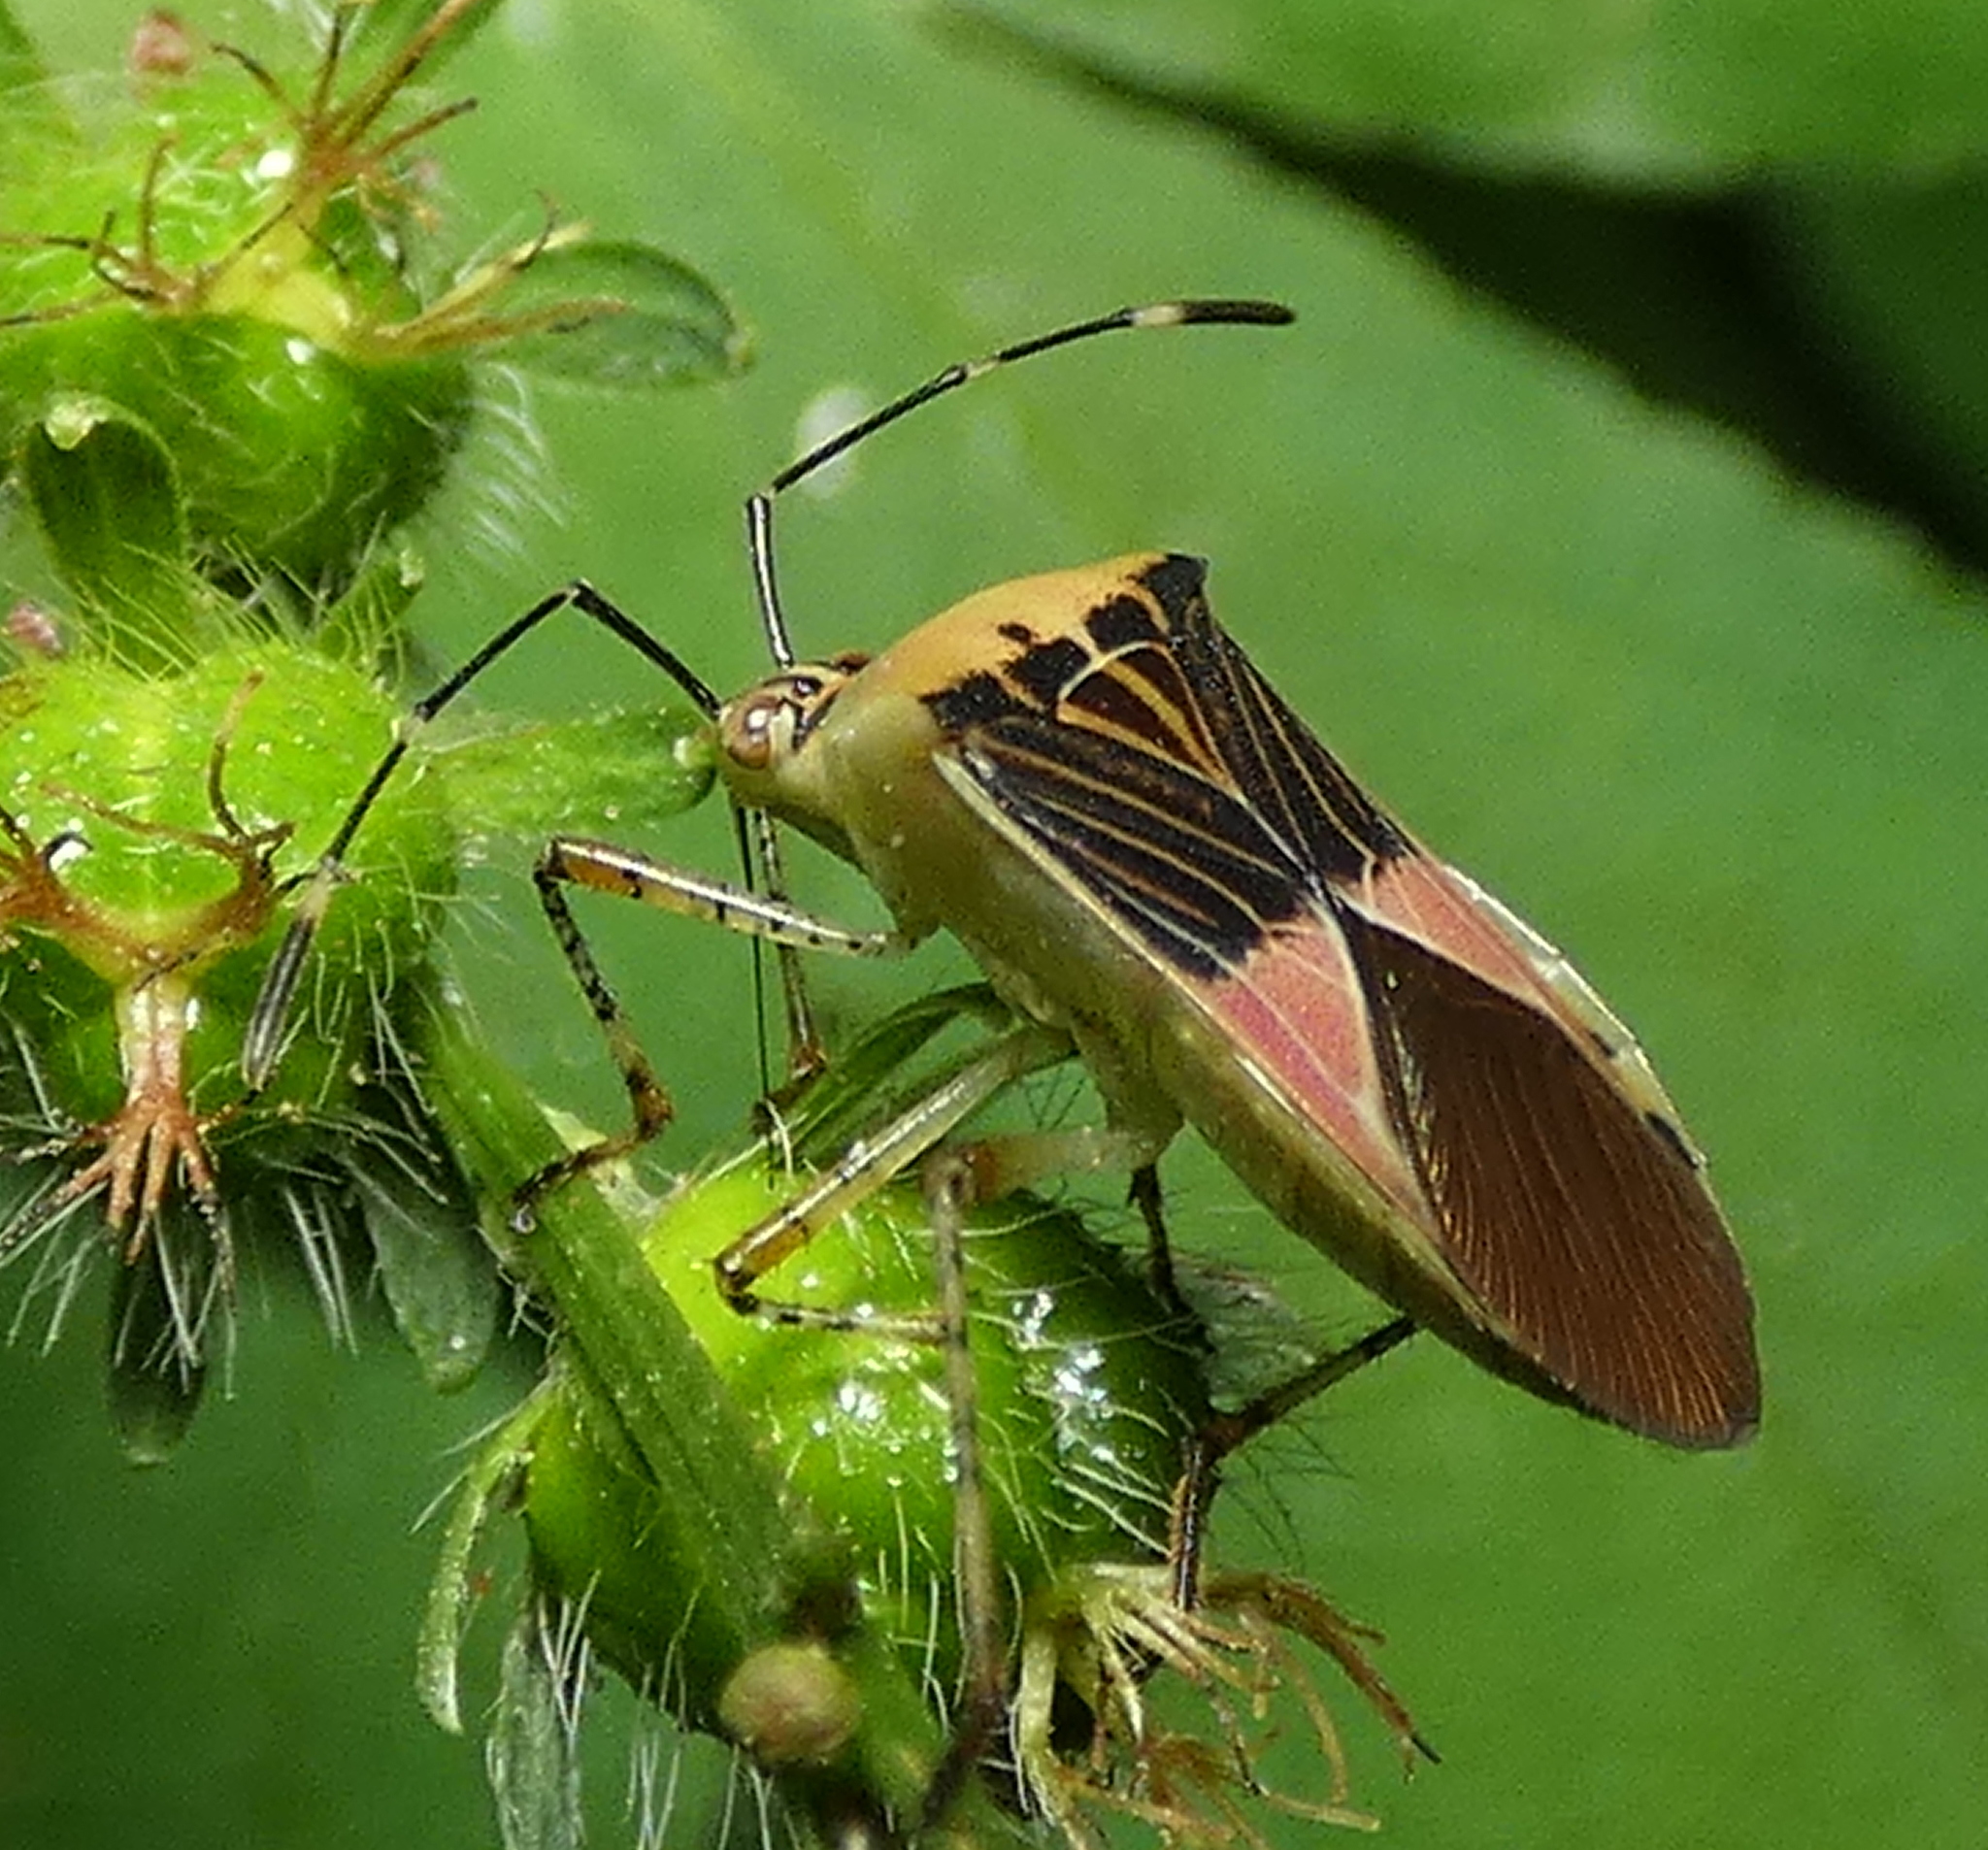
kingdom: Animalia
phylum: Arthropoda
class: Insecta
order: Hemiptera
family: Coreidae
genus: Hypselonotus
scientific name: Hypselonotus fulvus
